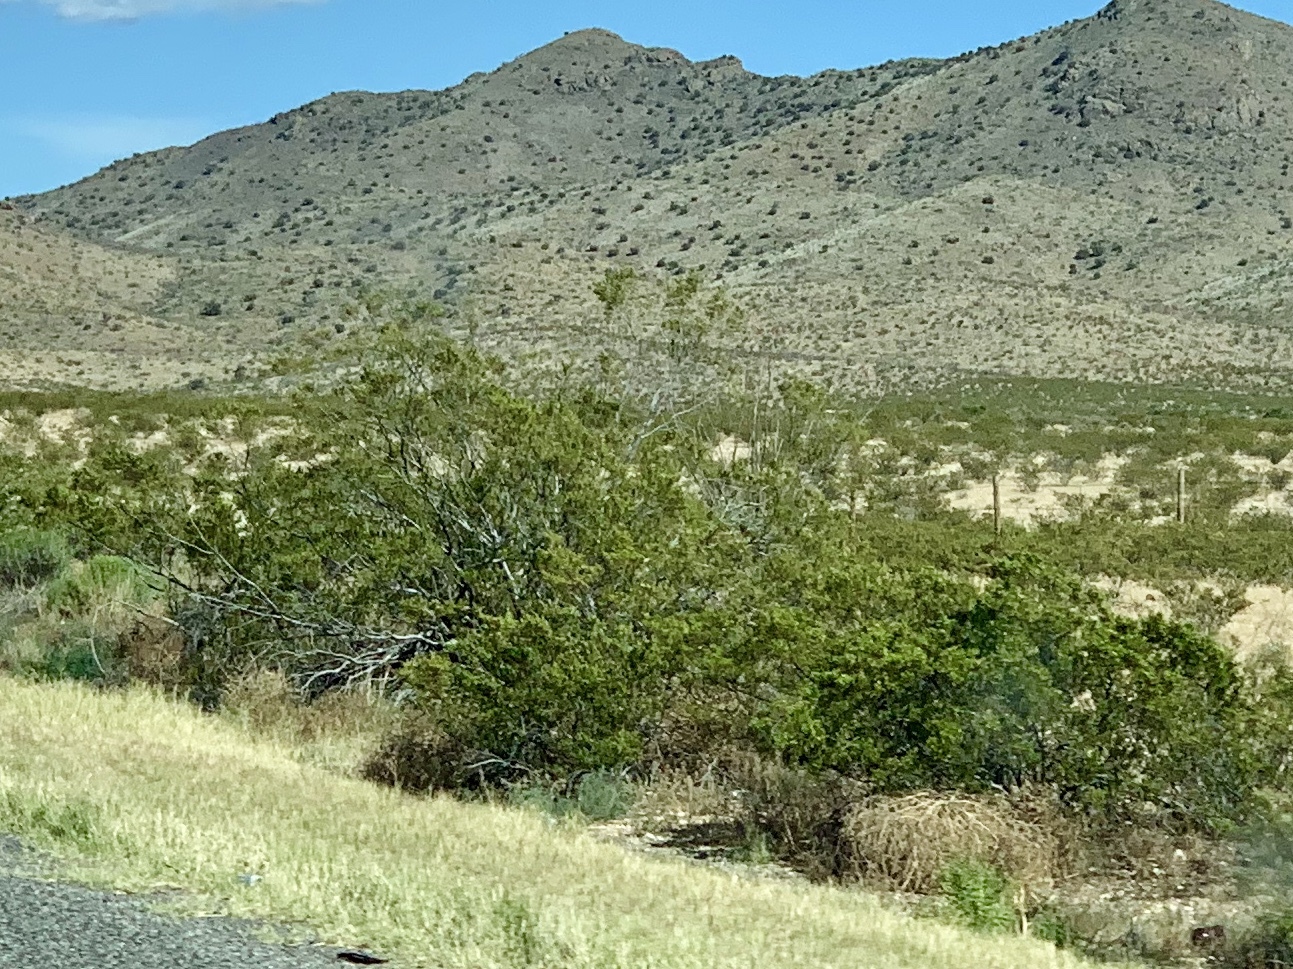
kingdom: Plantae
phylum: Tracheophyta
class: Magnoliopsida
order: Zygophyllales
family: Zygophyllaceae
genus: Larrea
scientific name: Larrea tridentata
